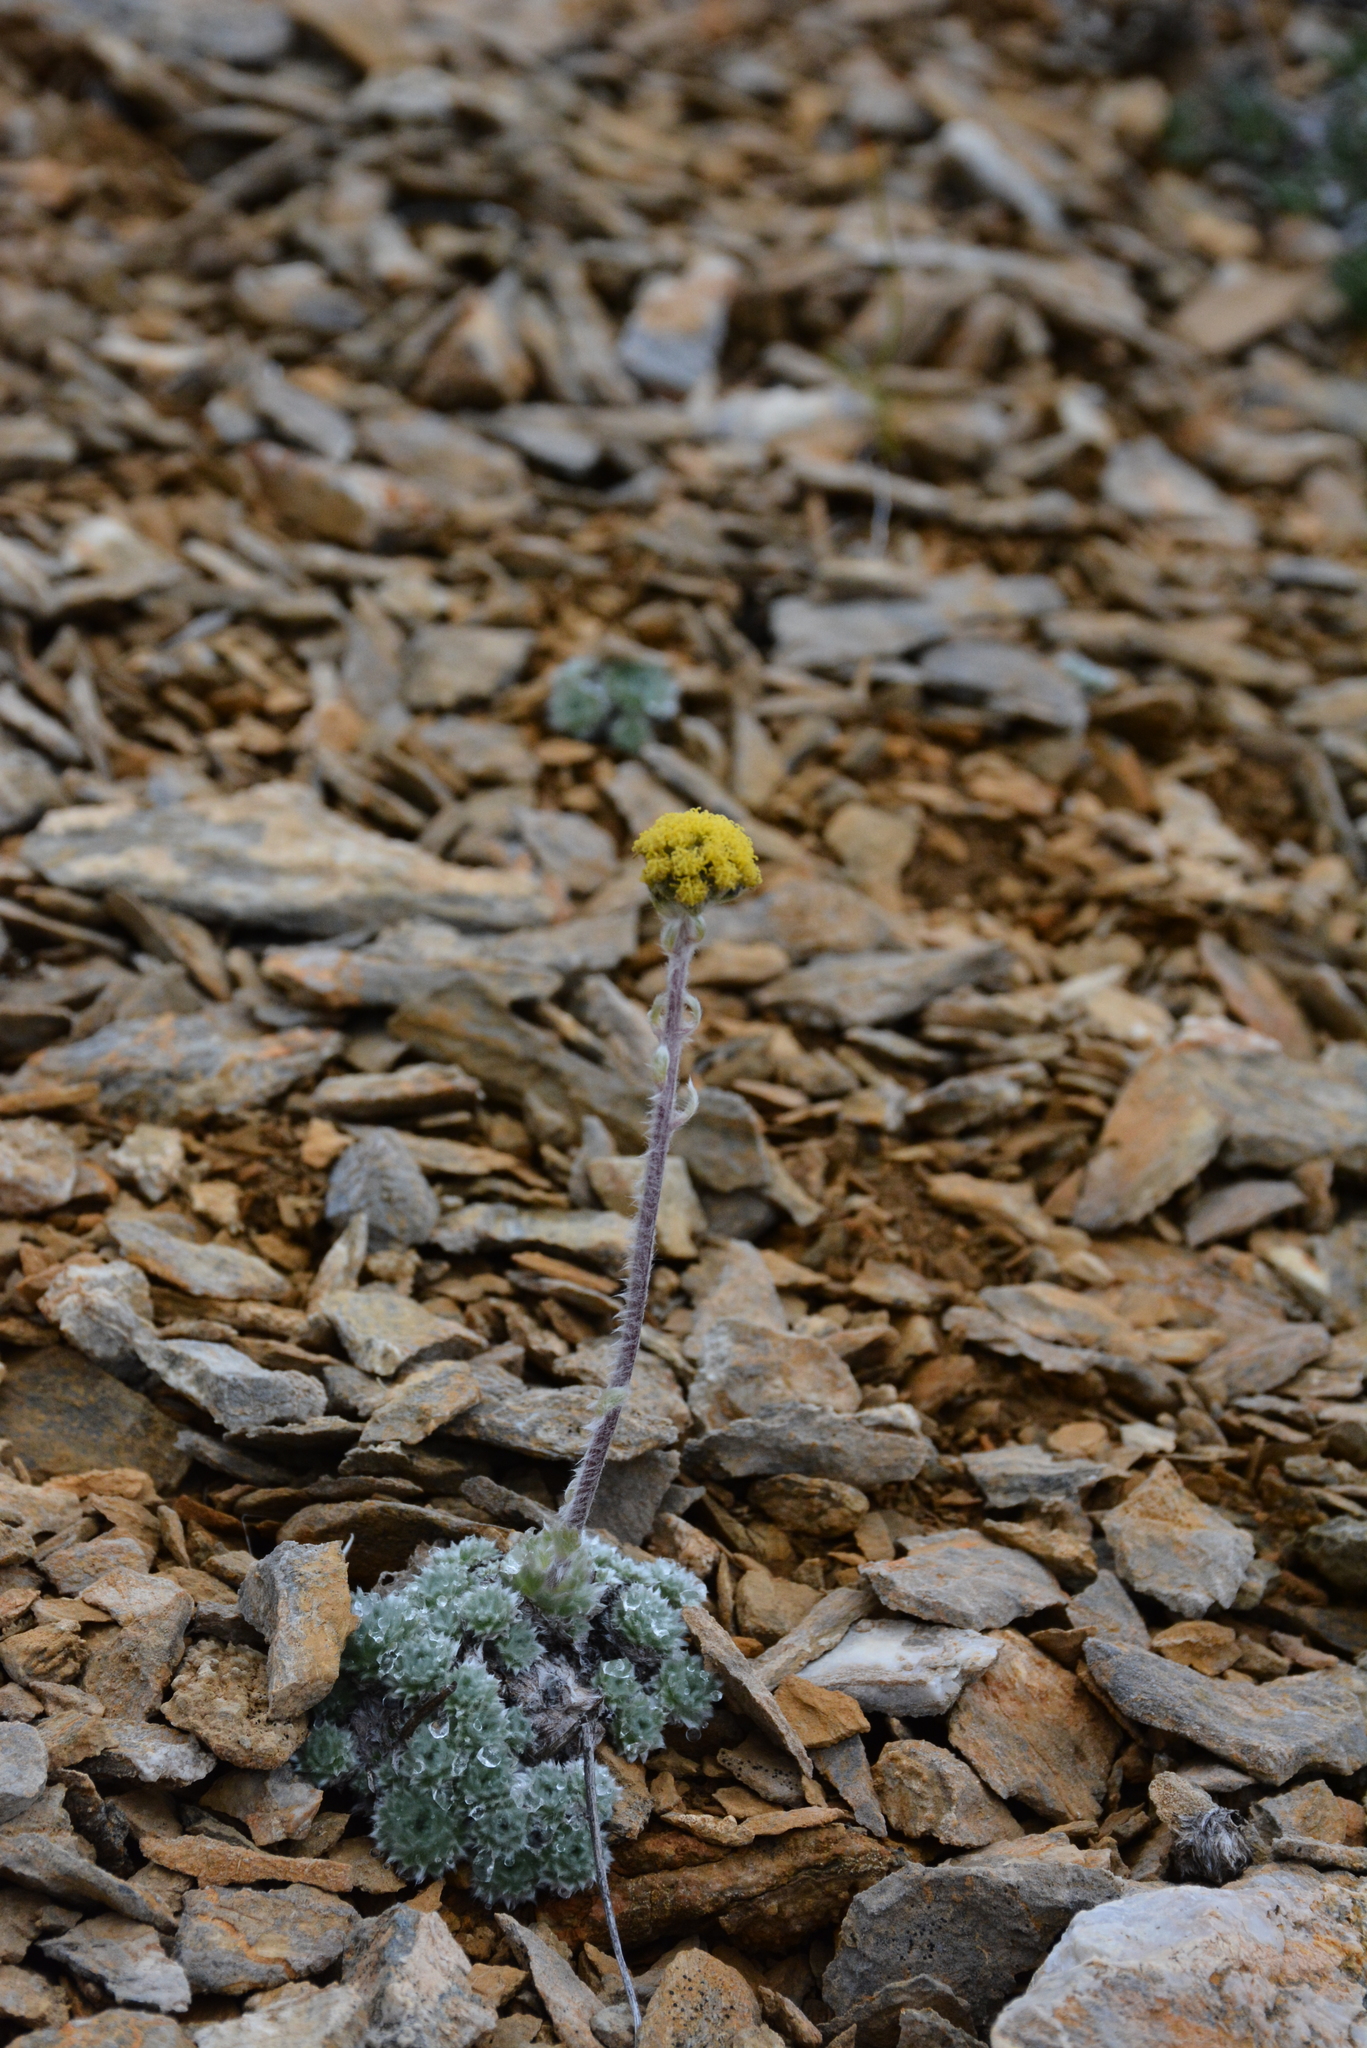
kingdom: Plantae
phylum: Tracheophyta
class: Magnoliopsida
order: Asterales
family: Asteraceae
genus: Artemisia
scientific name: Artemisia senjavinensis
